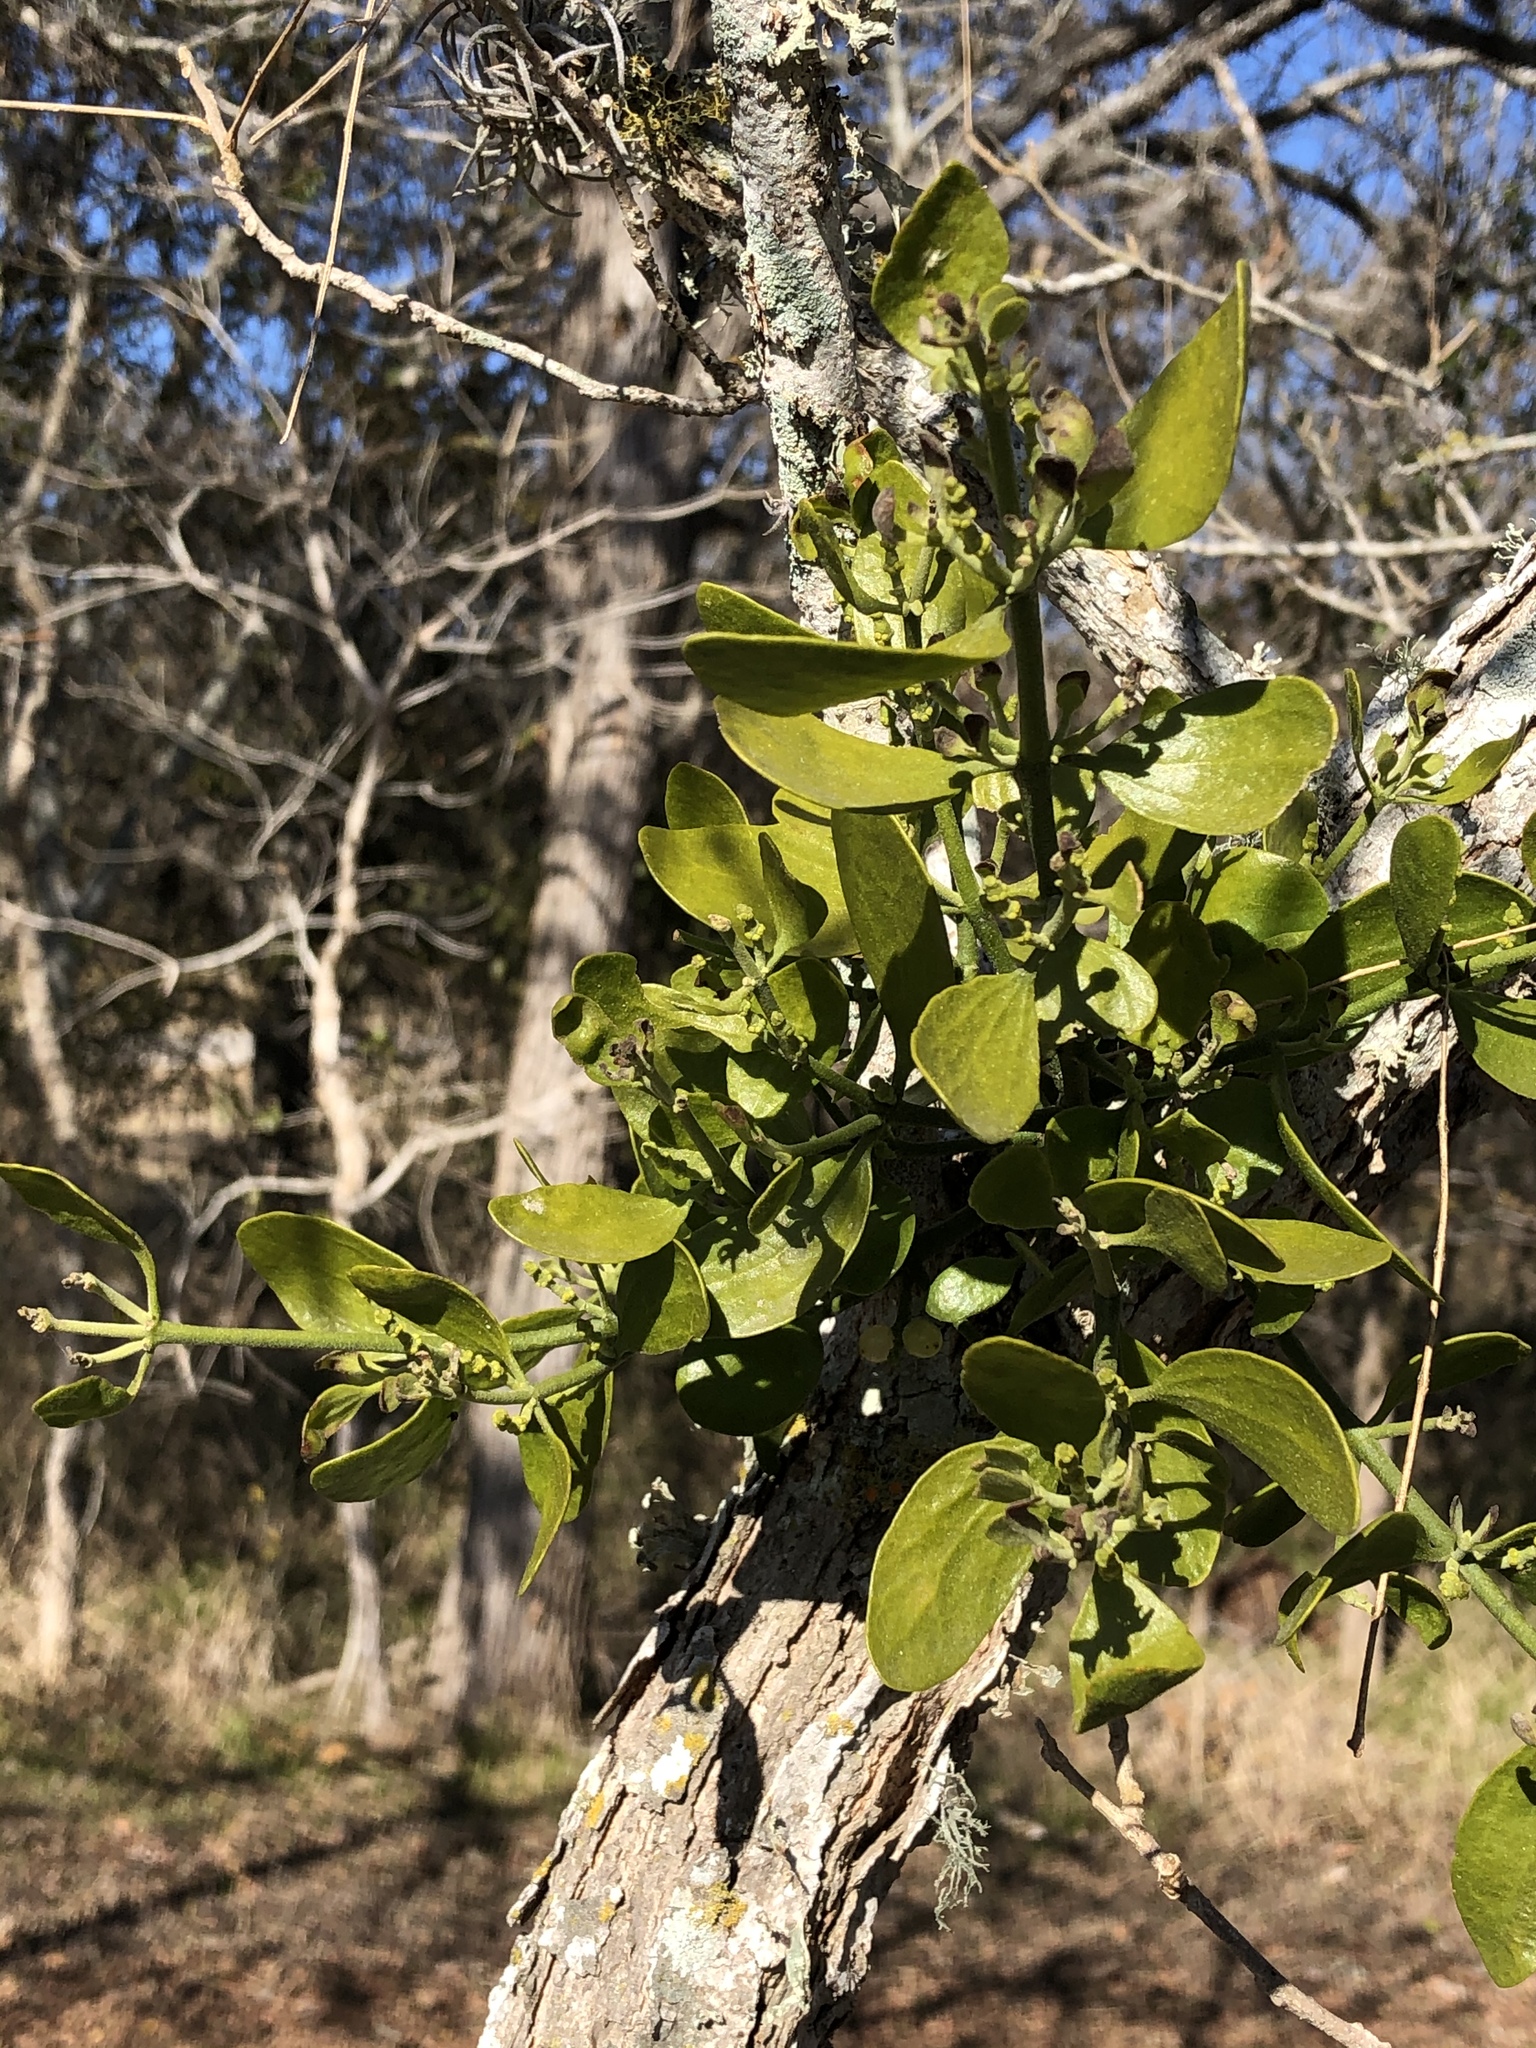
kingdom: Plantae
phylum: Tracheophyta
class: Magnoliopsida
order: Santalales
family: Viscaceae
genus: Phoradendron
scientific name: Phoradendron leucarpum
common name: Pacific mistletoe
